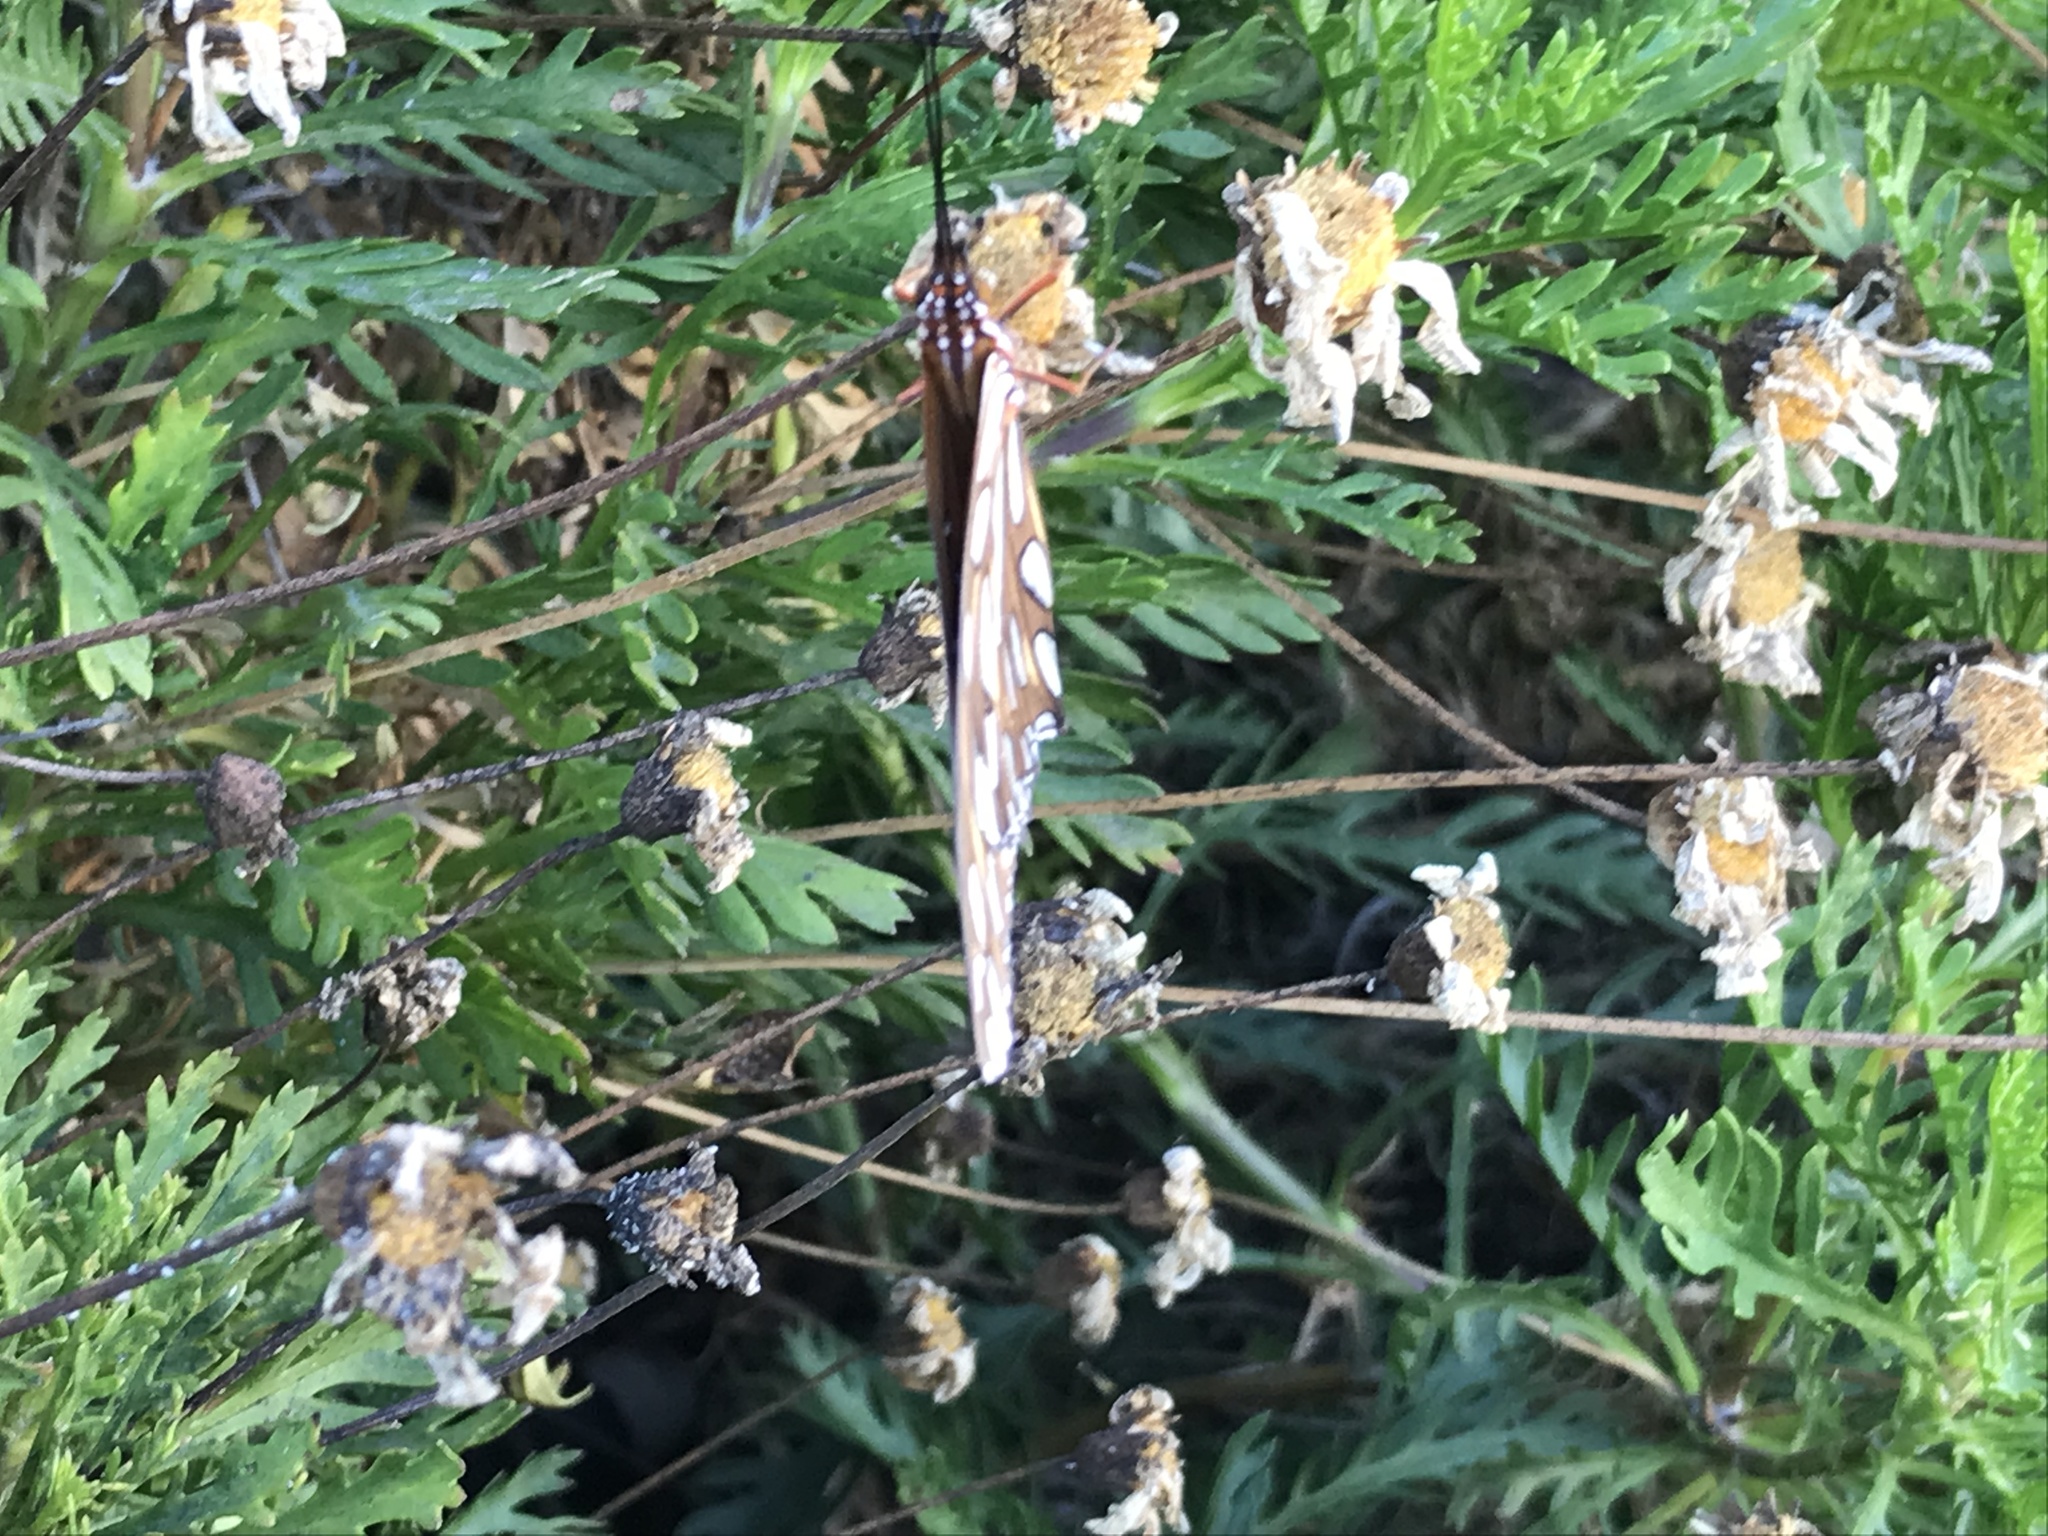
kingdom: Animalia
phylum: Arthropoda
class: Insecta
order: Lepidoptera
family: Nymphalidae
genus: Dione
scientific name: Dione vanillae
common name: Gulf fritillary
